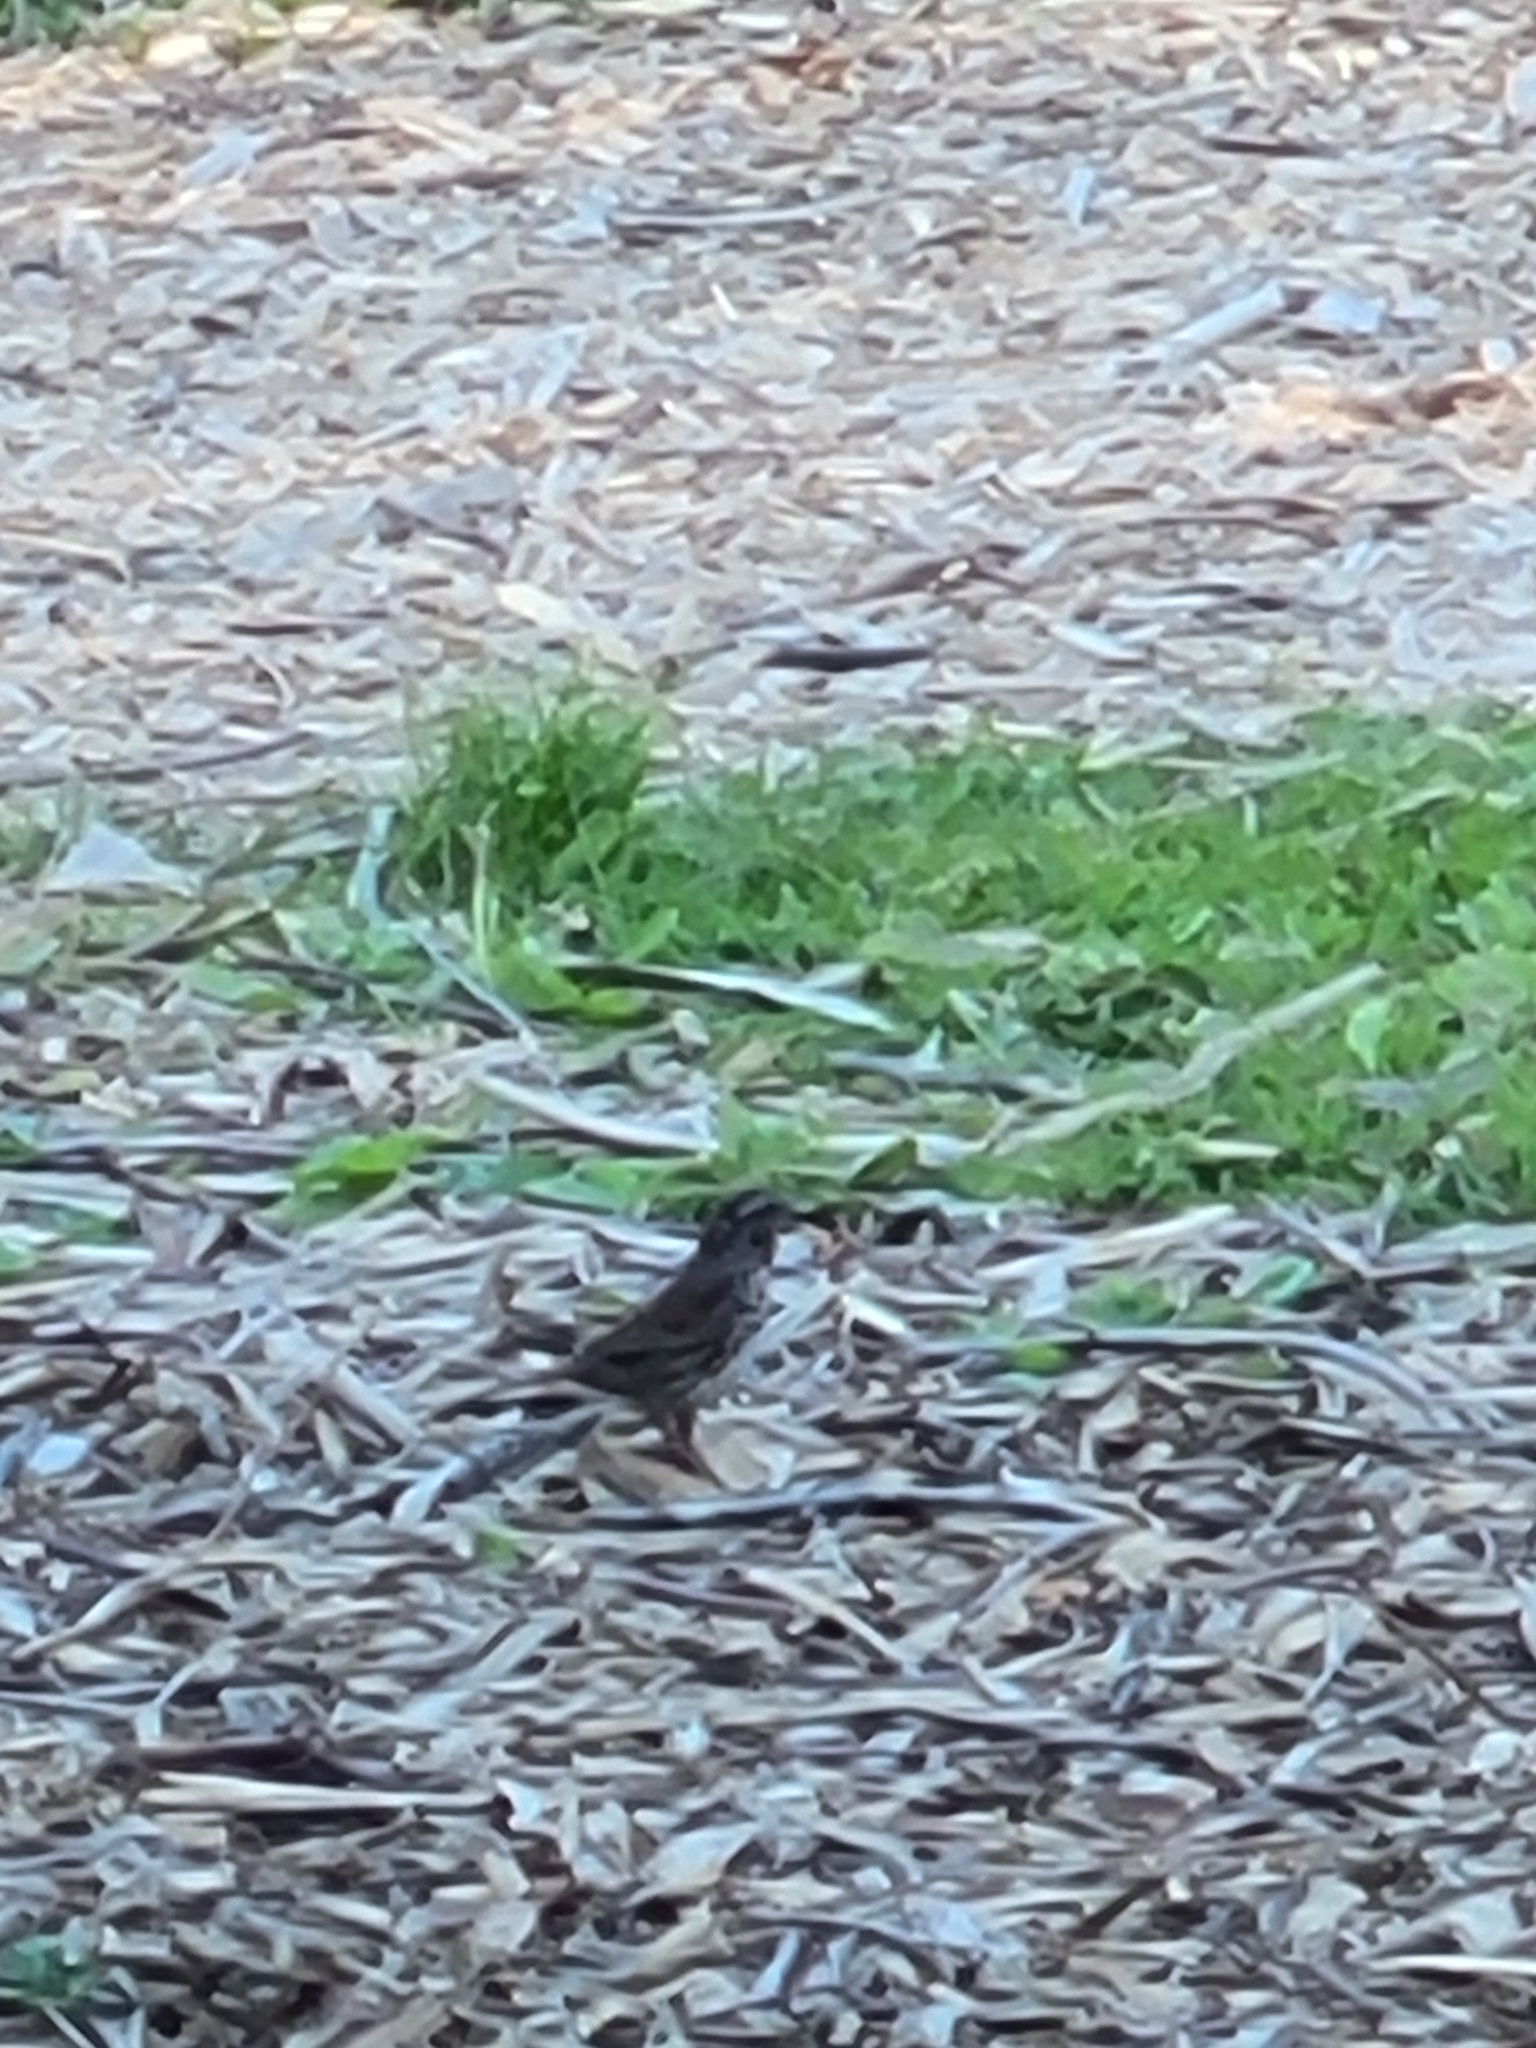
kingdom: Animalia
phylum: Chordata
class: Aves
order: Passeriformes
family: Passerellidae
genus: Melospiza
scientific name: Melospiza melodia
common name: Song sparrow
